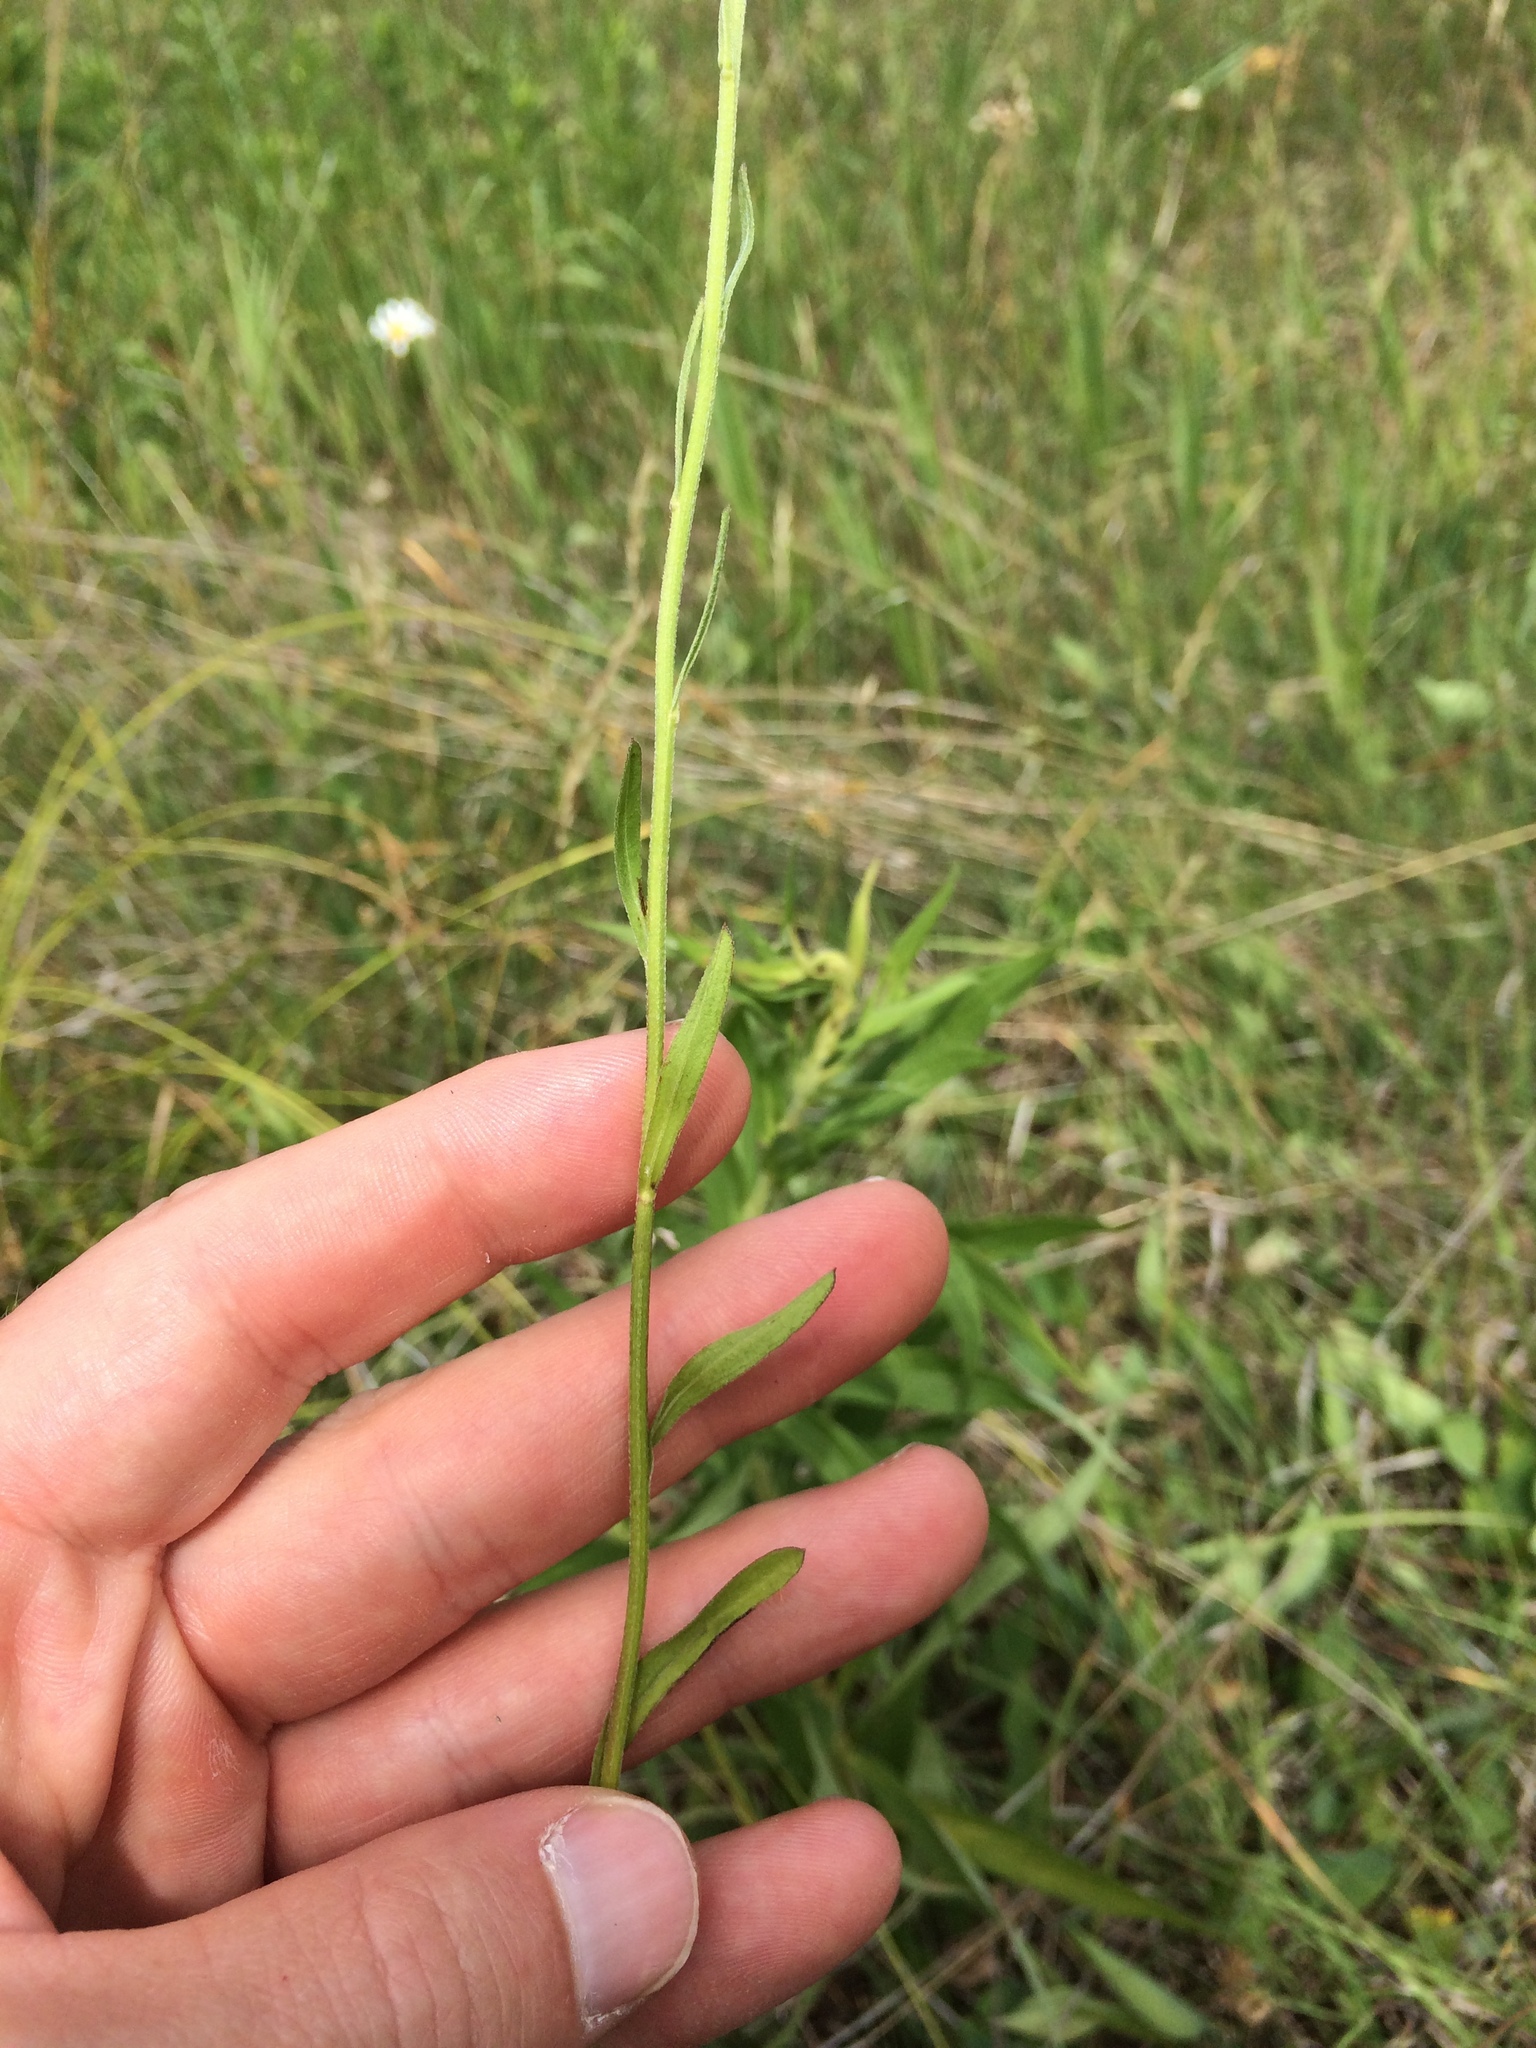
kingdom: Plantae
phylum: Tracheophyta
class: Magnoliopsida
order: Asterales
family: Asteraceae
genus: Erigeron
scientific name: Erigeron strigosus
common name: Common eastern fleabane
